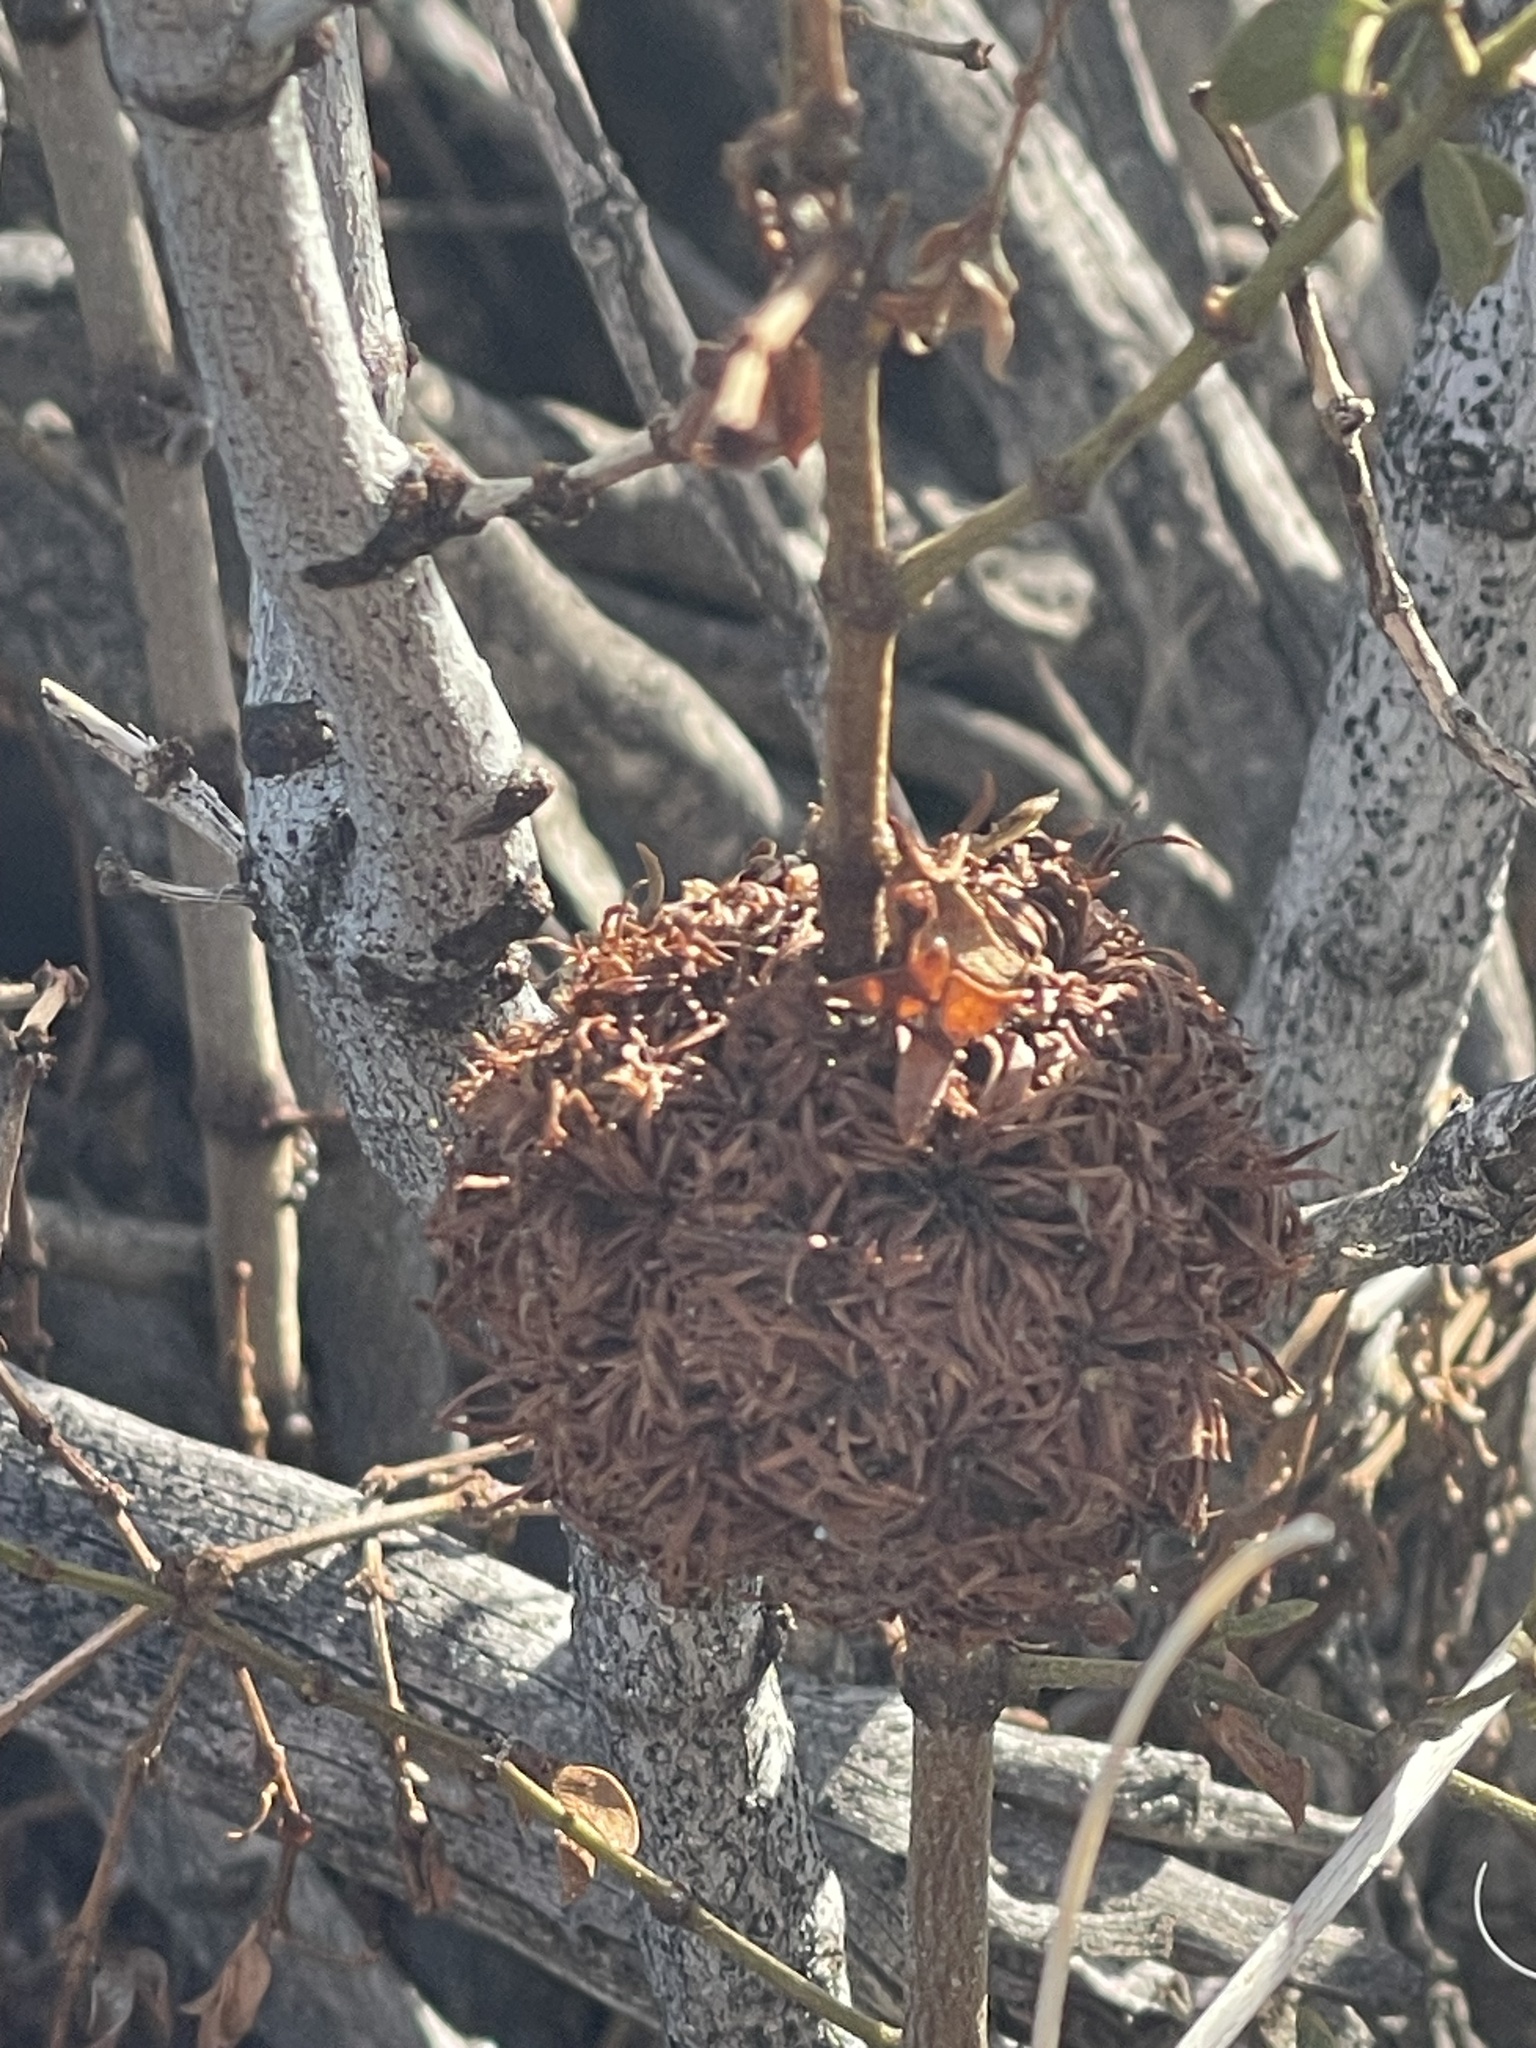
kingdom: Animalia
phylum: Arthropoda
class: Insecta
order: Diptera
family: Cecidomyiidae
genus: Asphondylia
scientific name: Asphondylia auripila
